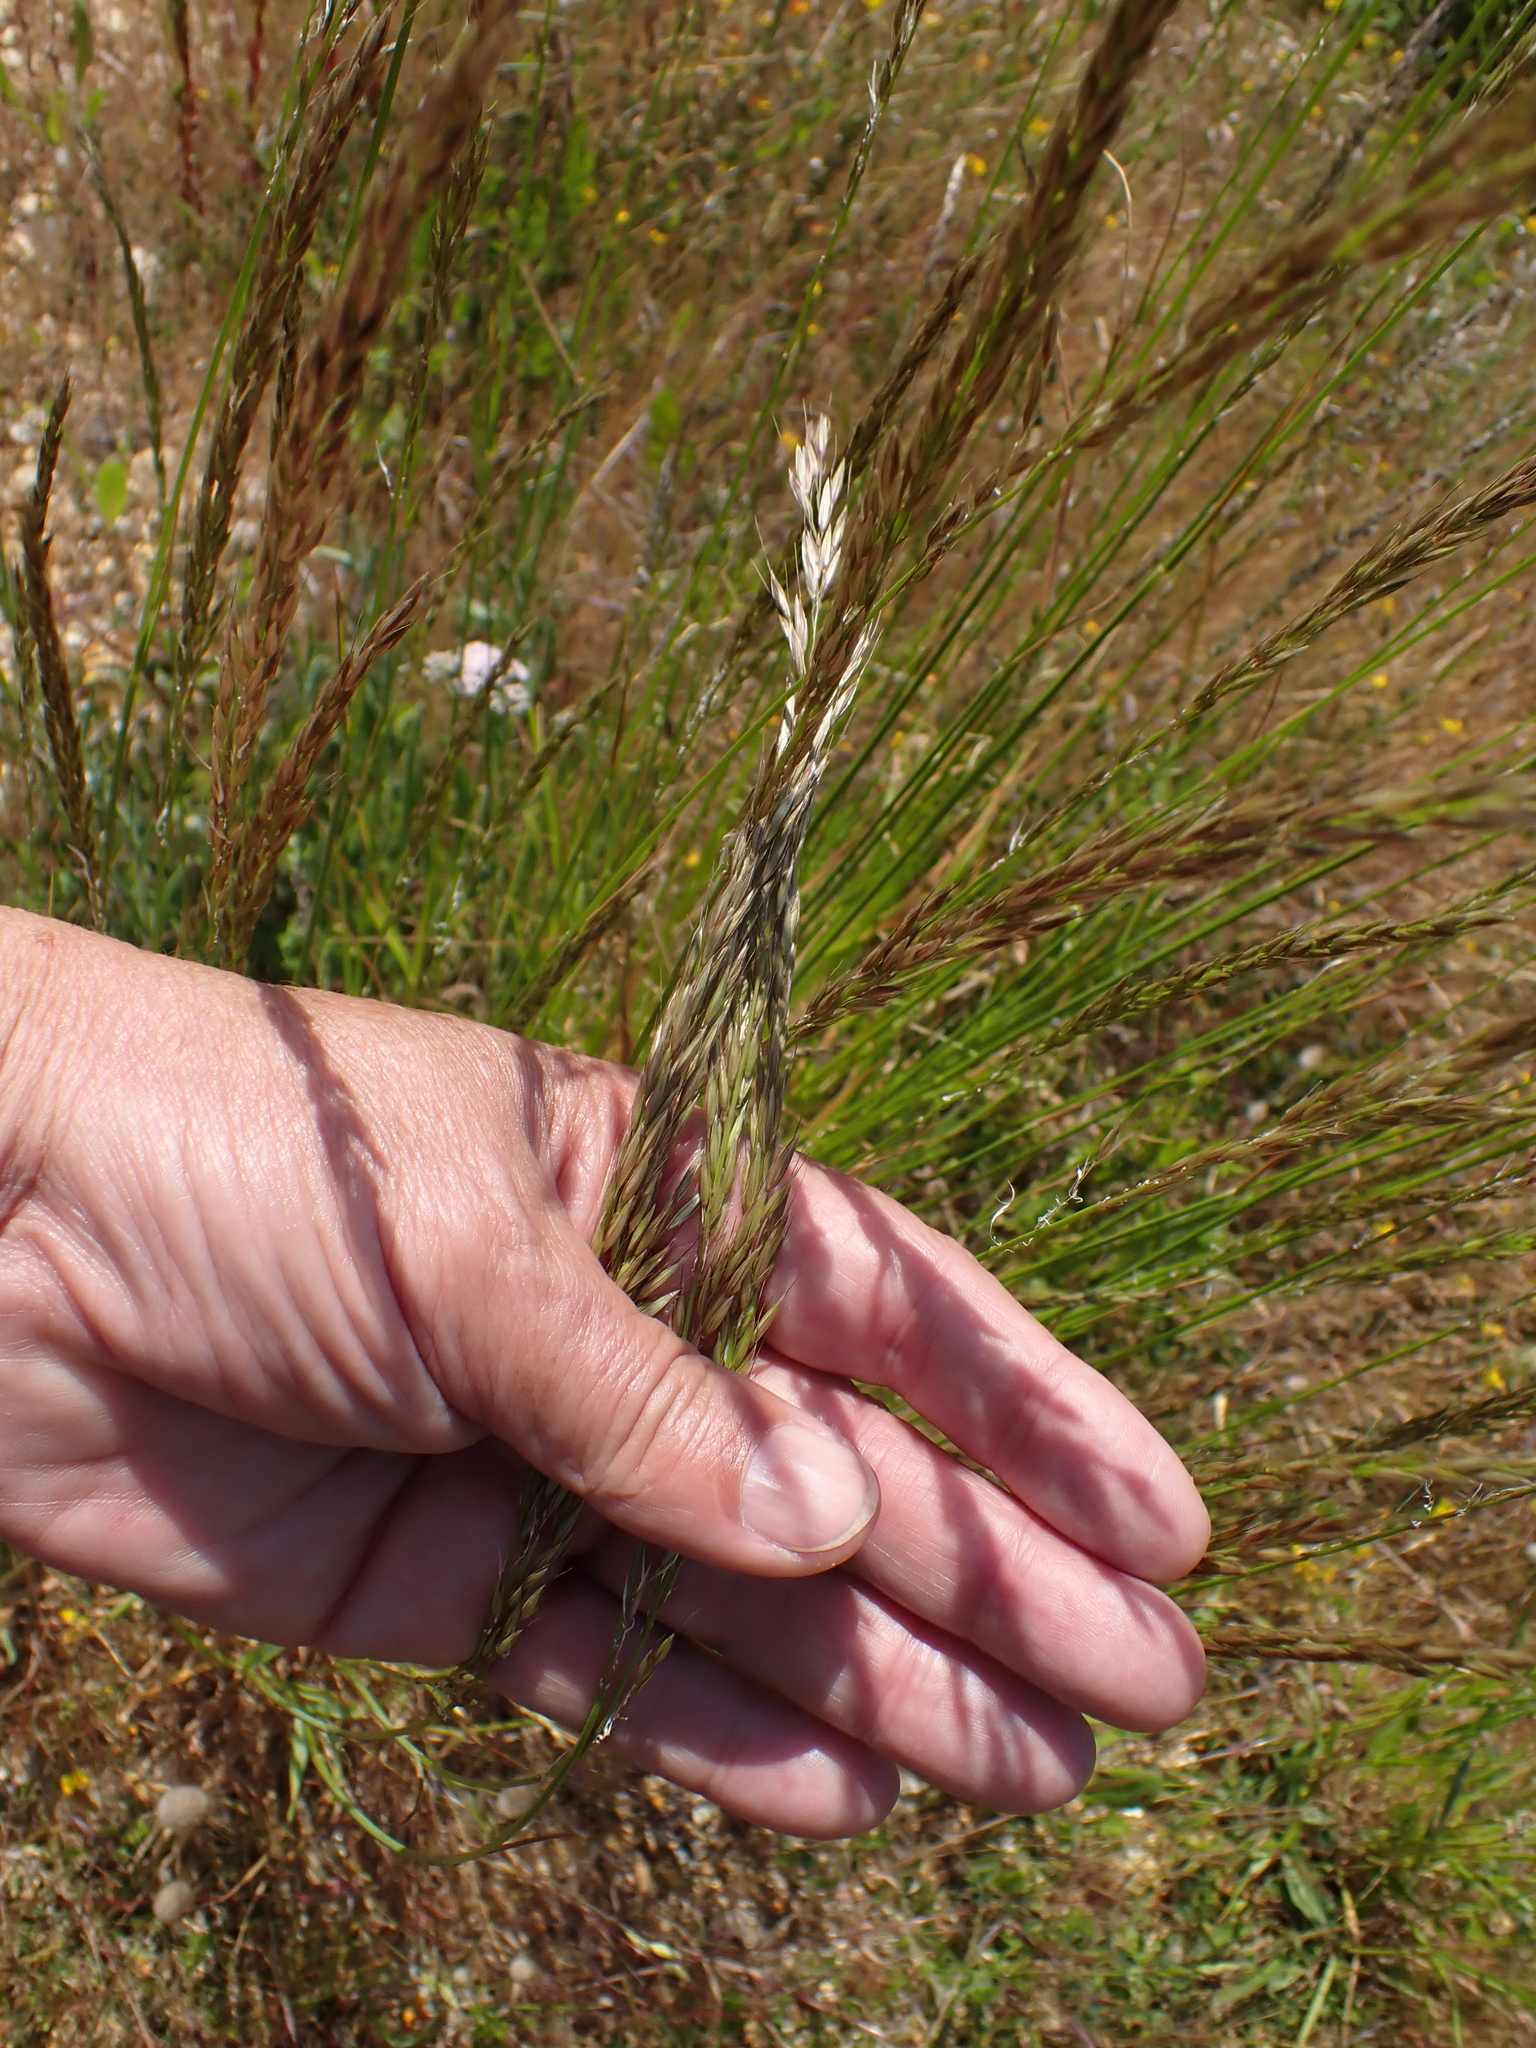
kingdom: Plantae
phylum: Tracheophyta
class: Liliopsida
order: Poales
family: Poaceae
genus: Arrhenatherum
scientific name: Arrhenatherum elatius
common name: Tall oatgrass
